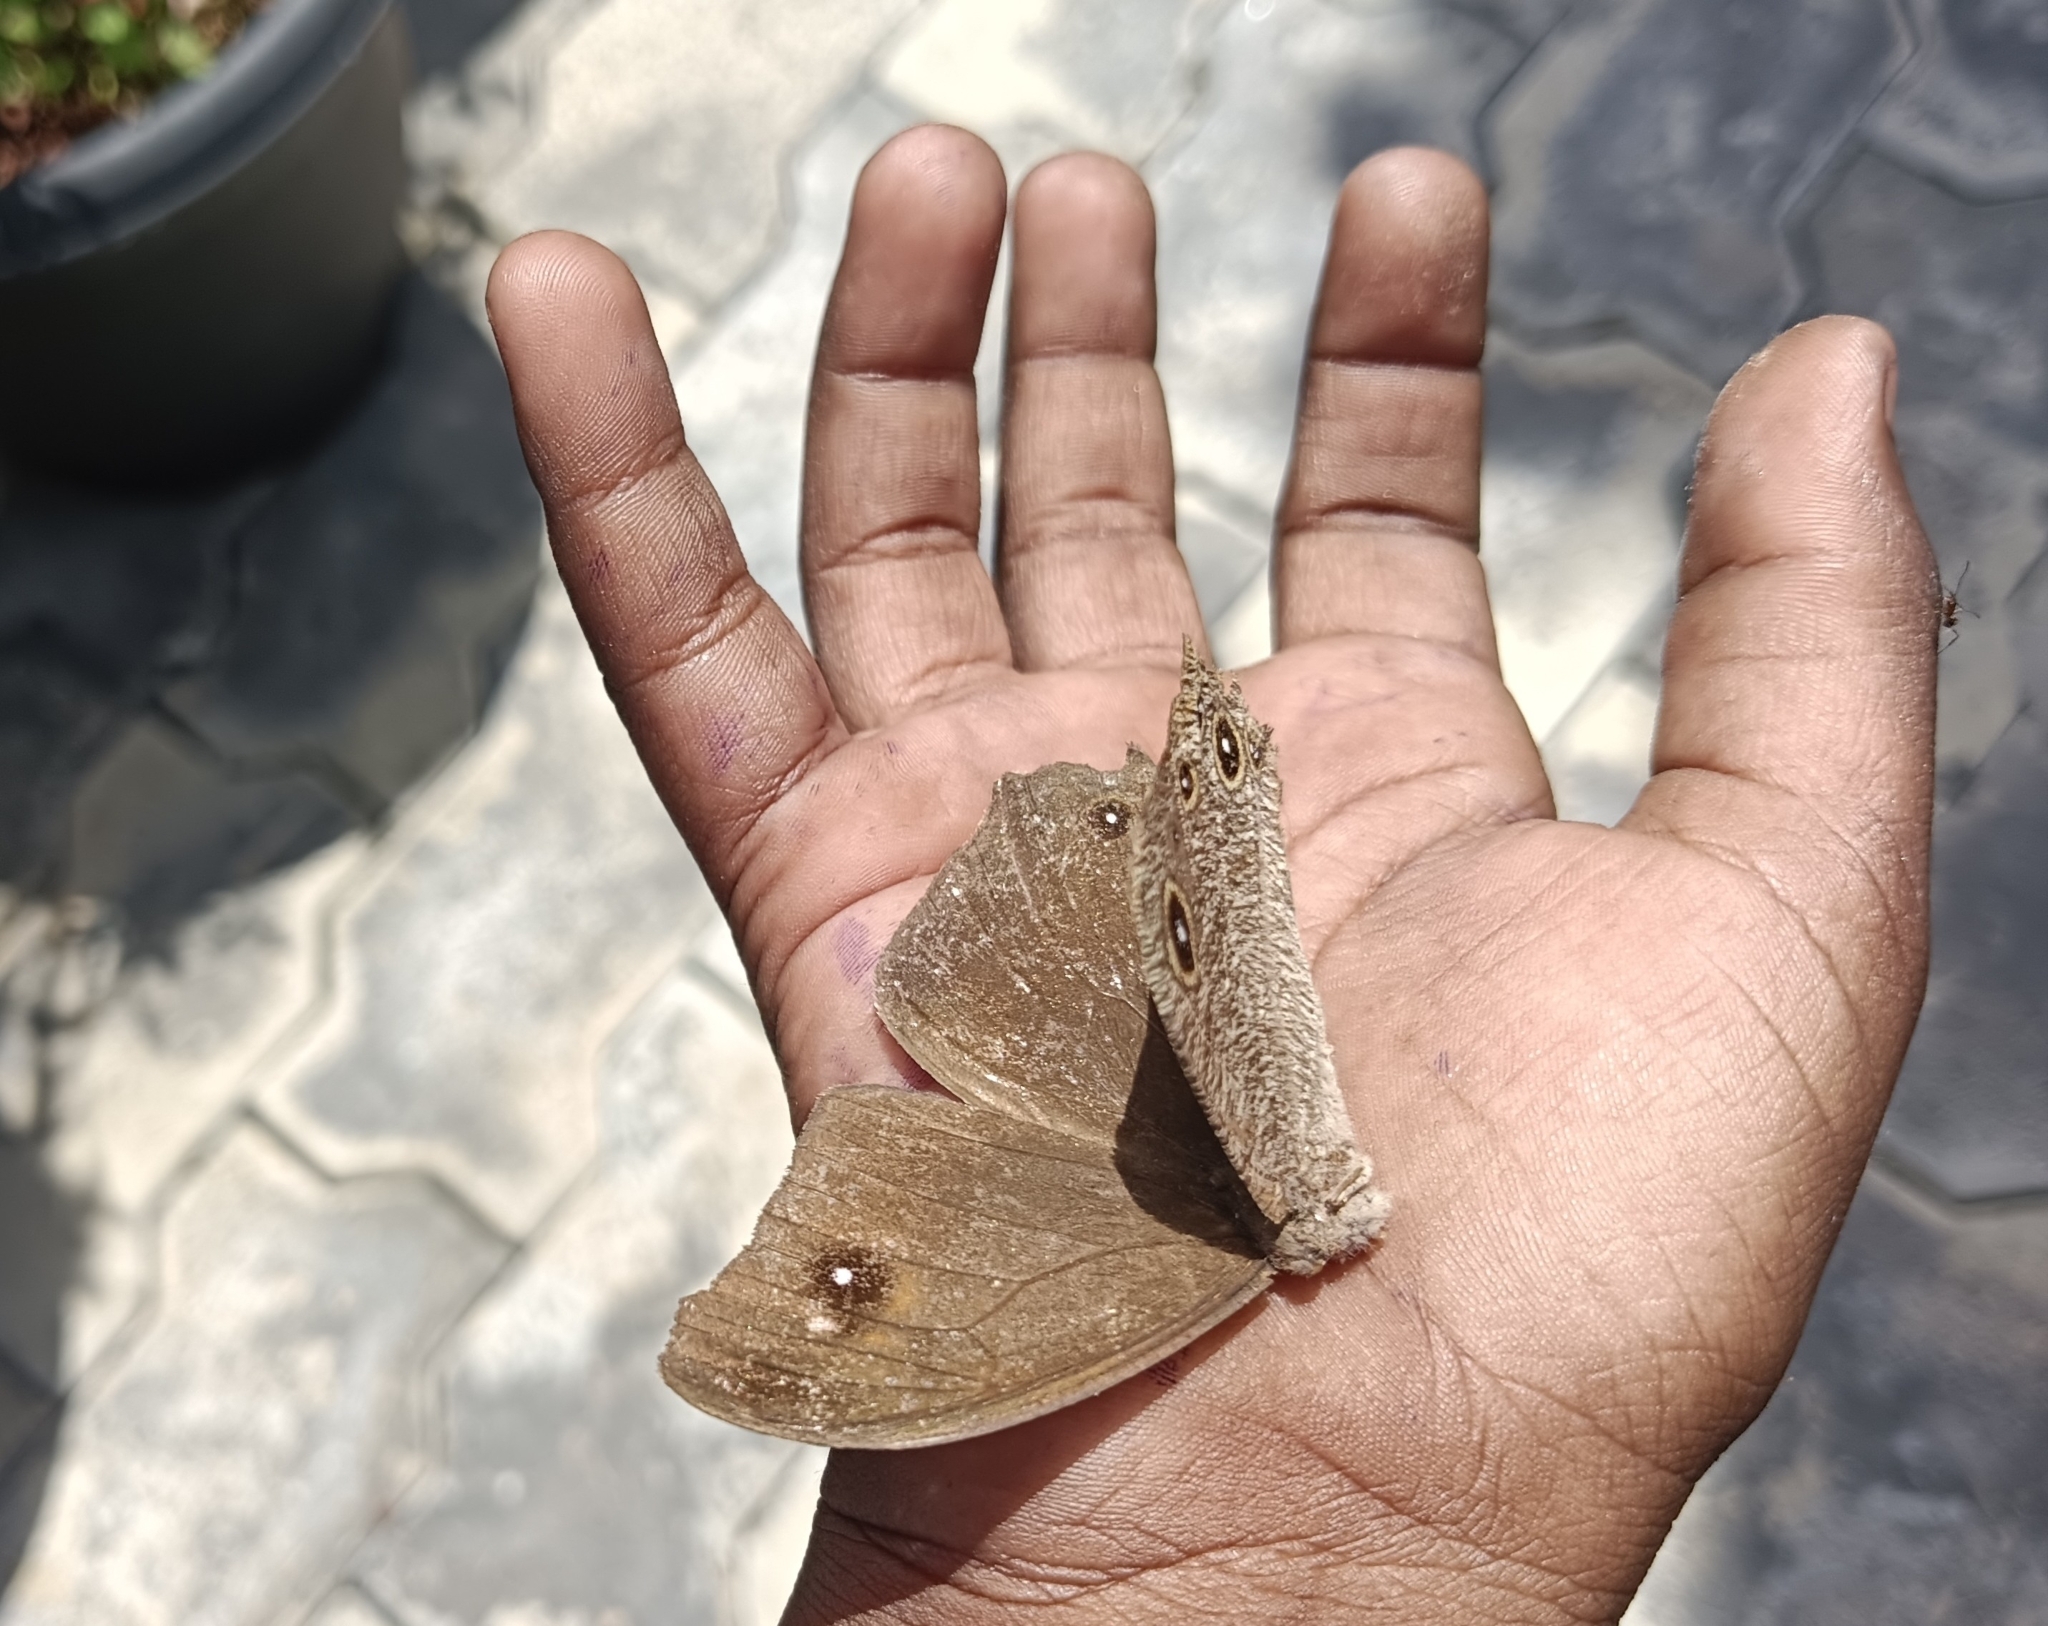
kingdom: Animalia
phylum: Arthropoda
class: Insecta
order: Lepidoptera
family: Nymphalidae
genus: Melanitis
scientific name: Melanitis leda
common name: Twilight brown
